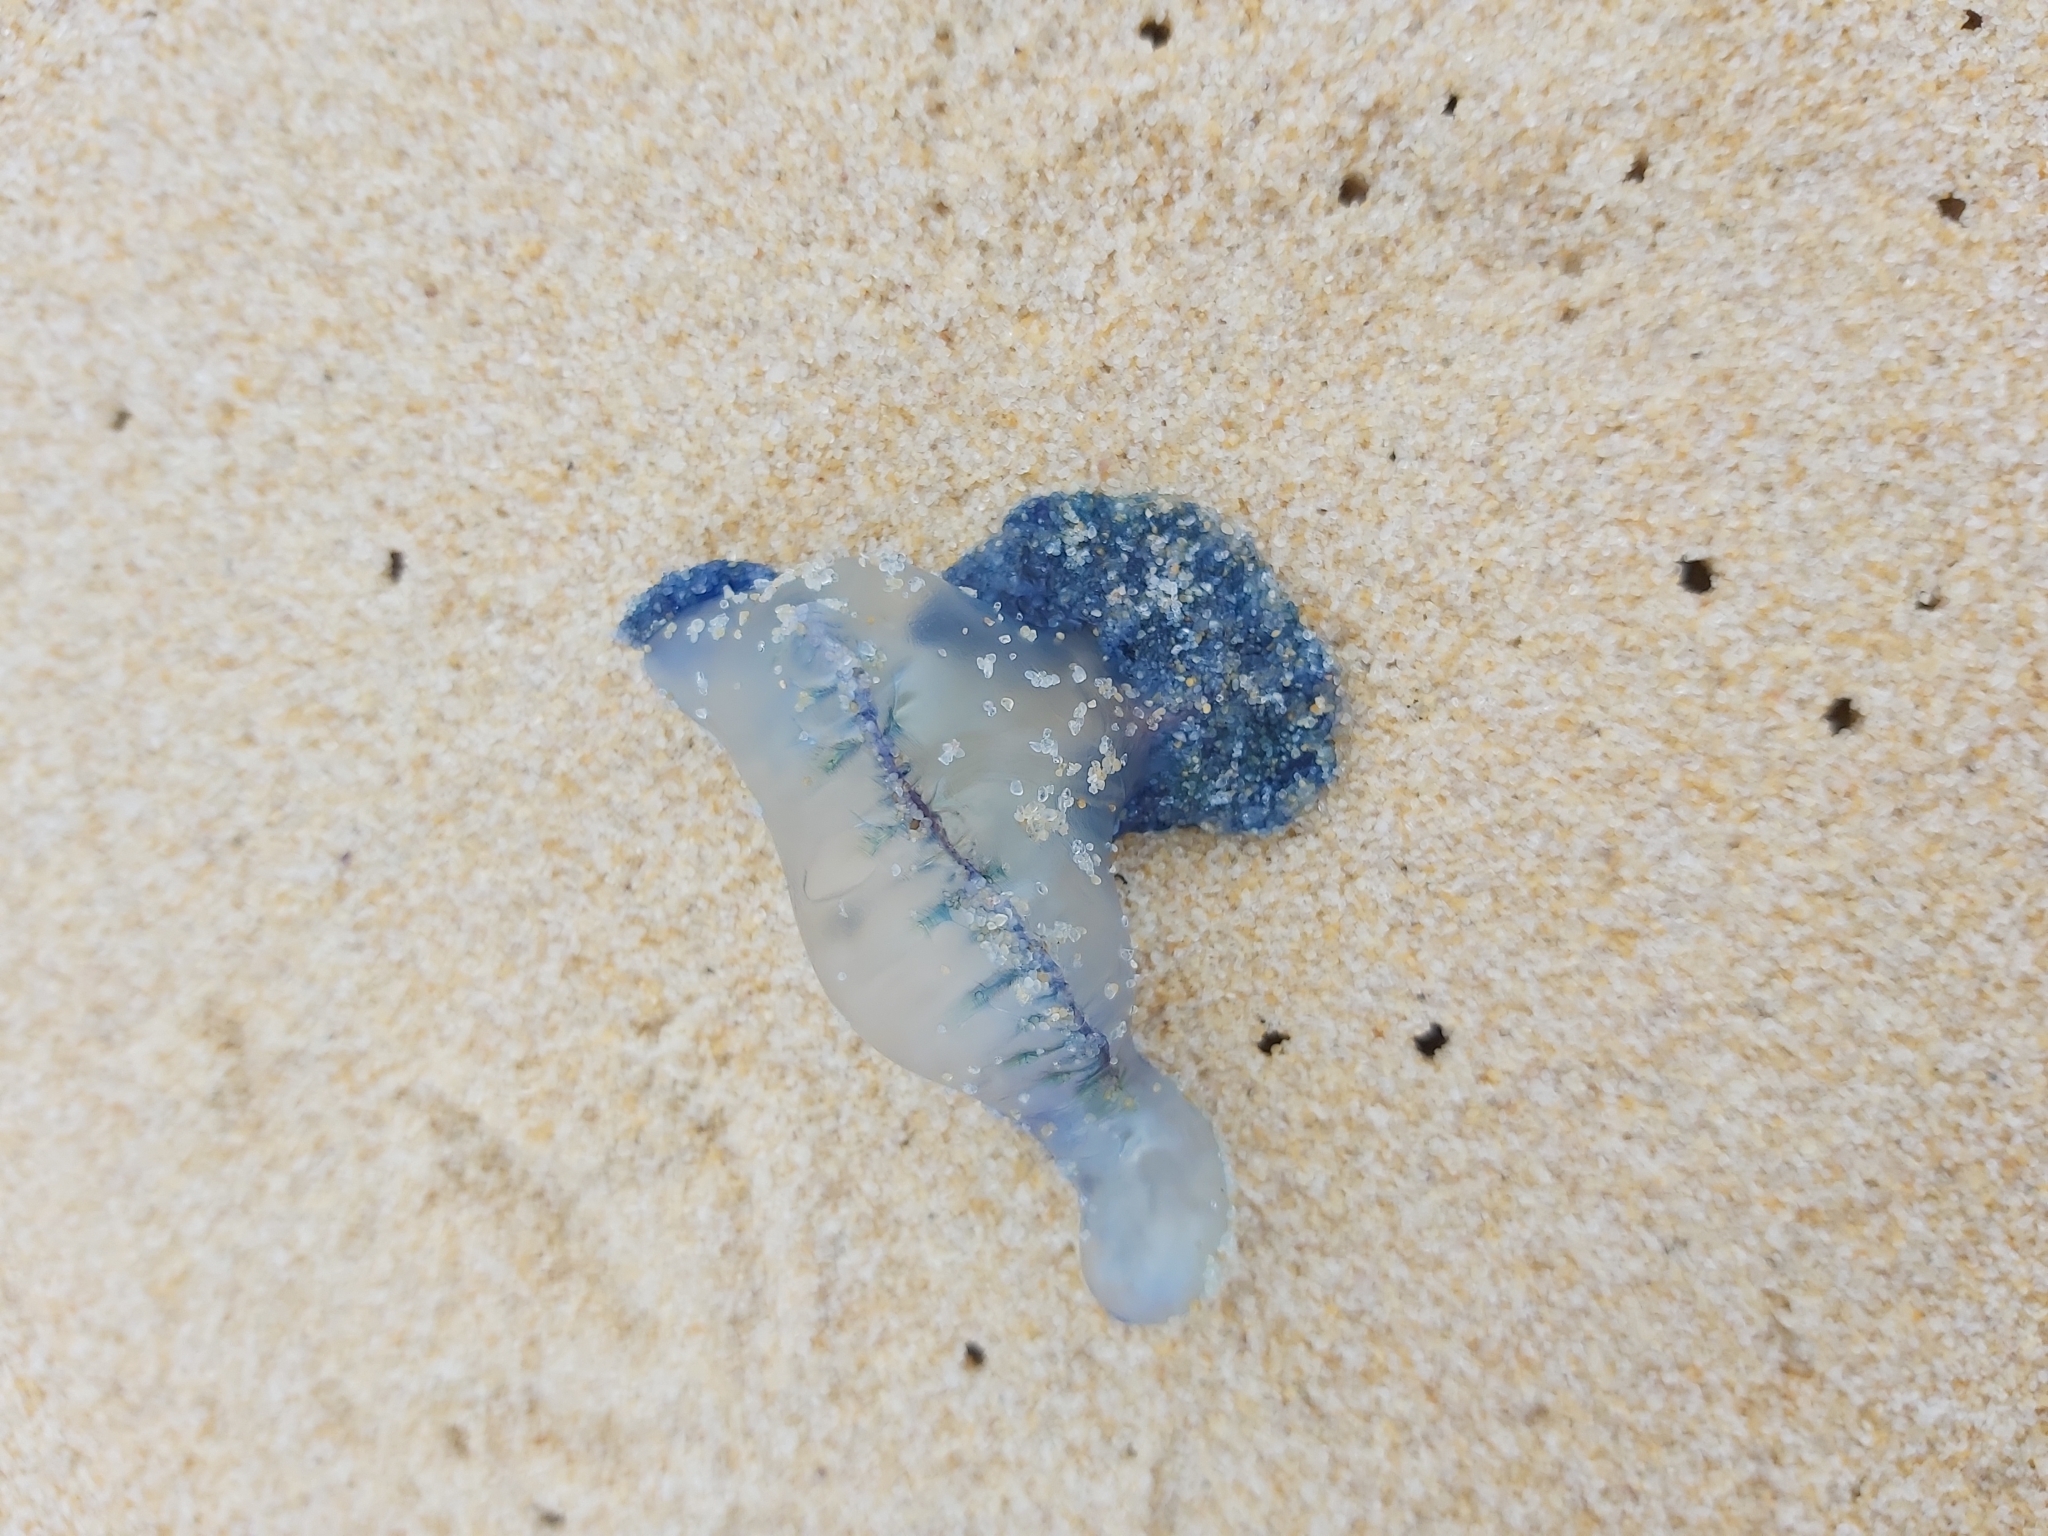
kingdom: Animalia
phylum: Cnidaria
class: Hydrozoa
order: Siphonophorae
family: Physaliidae
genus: Physalia
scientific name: Physalia physalis
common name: Portuguese man-of-war
